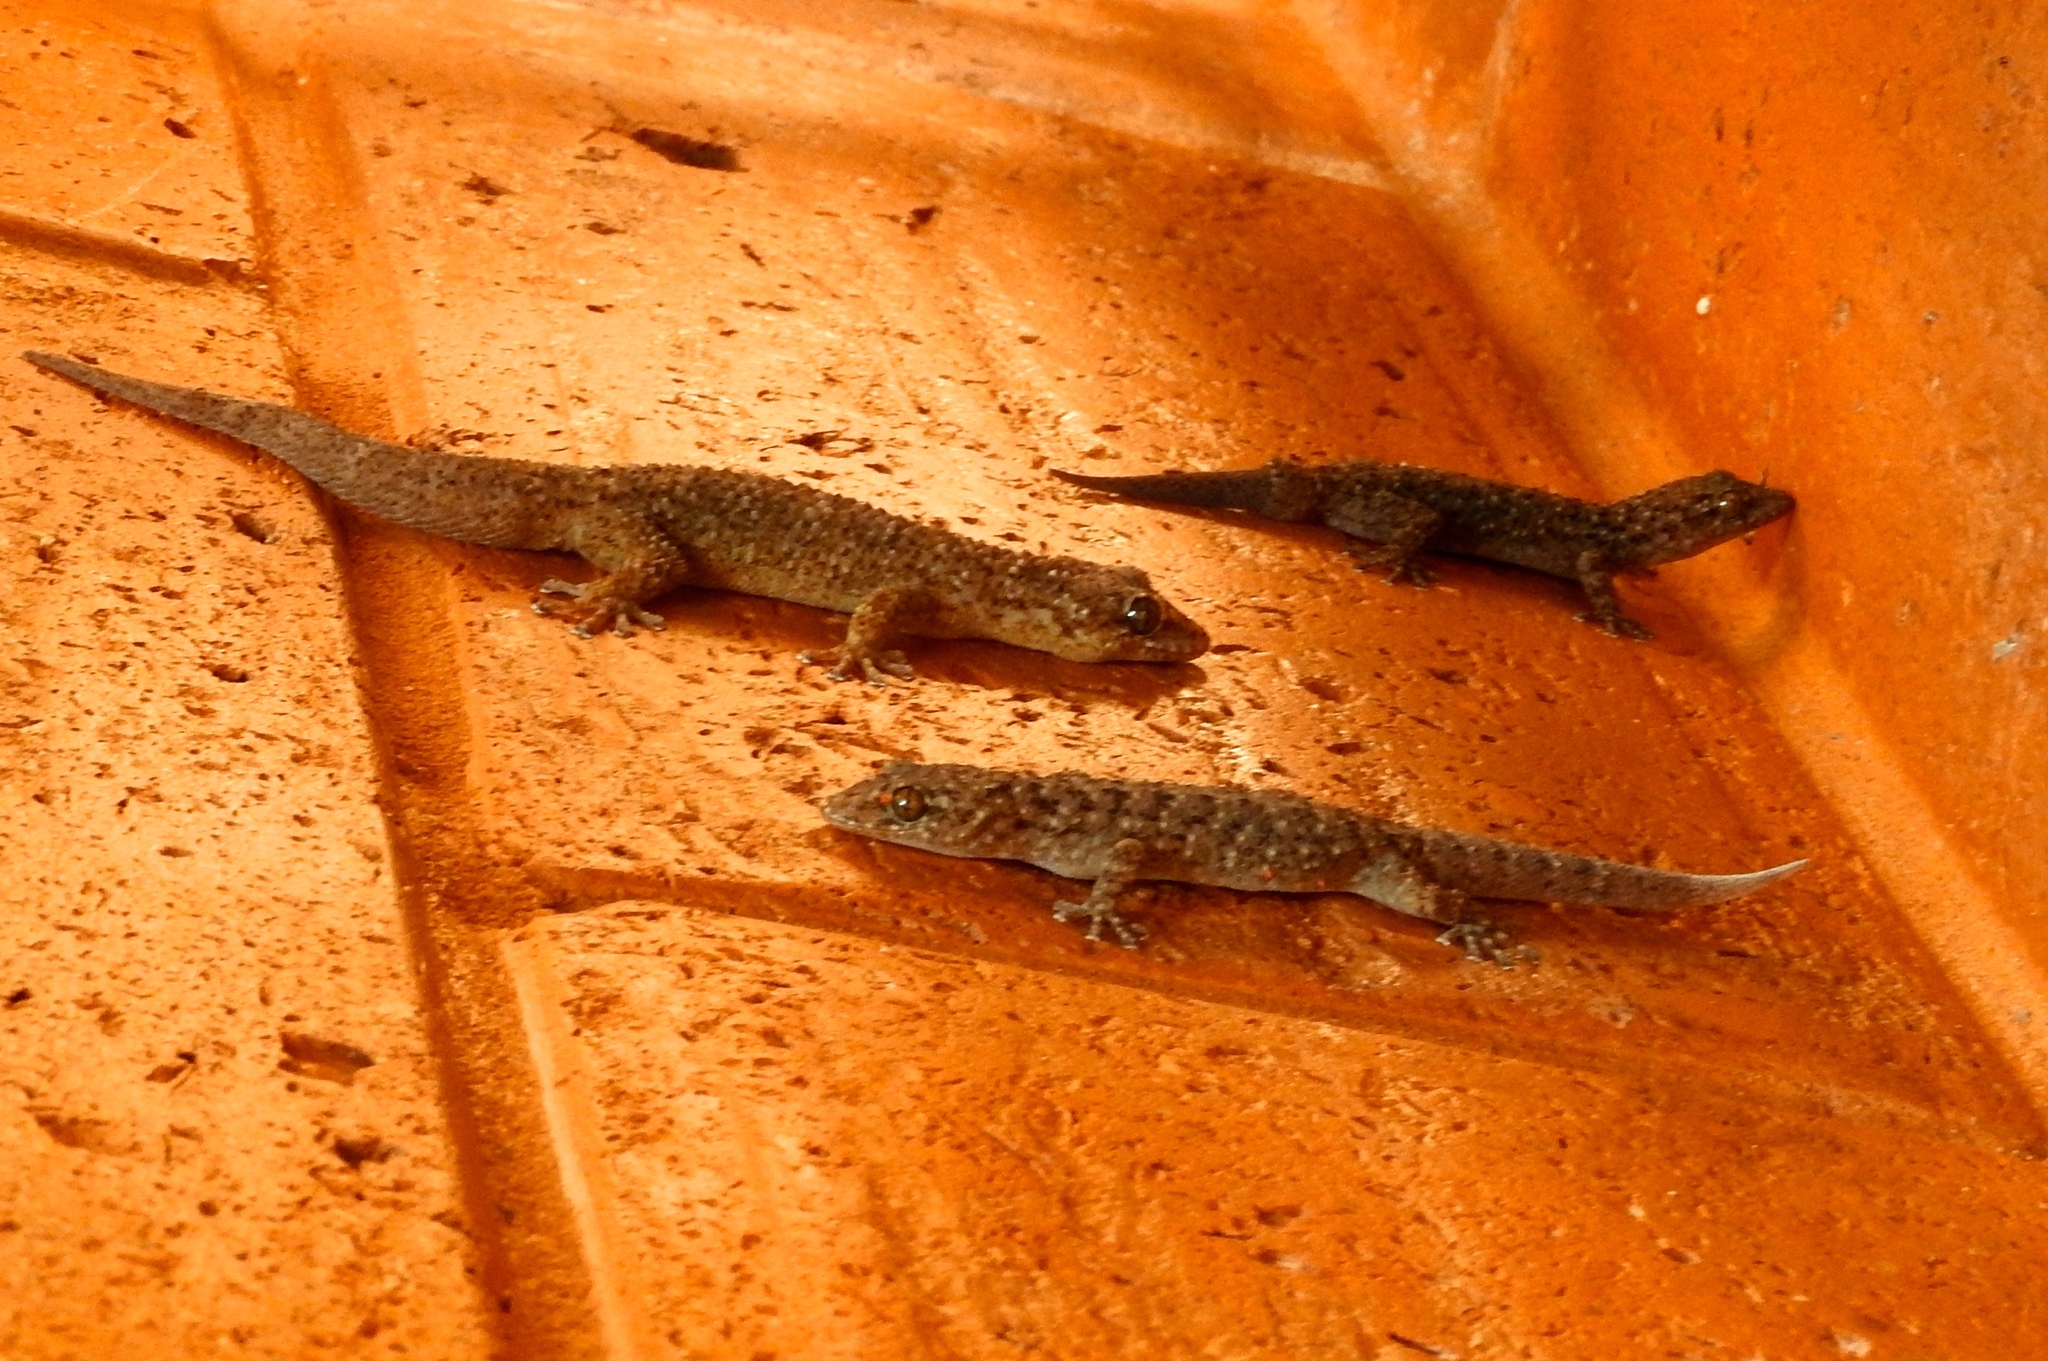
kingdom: Animalia
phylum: Chordata
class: Squamata
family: Gekkonidae
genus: Hemidactylus
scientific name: Hemidactylus turcicus
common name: Turkish gecko
